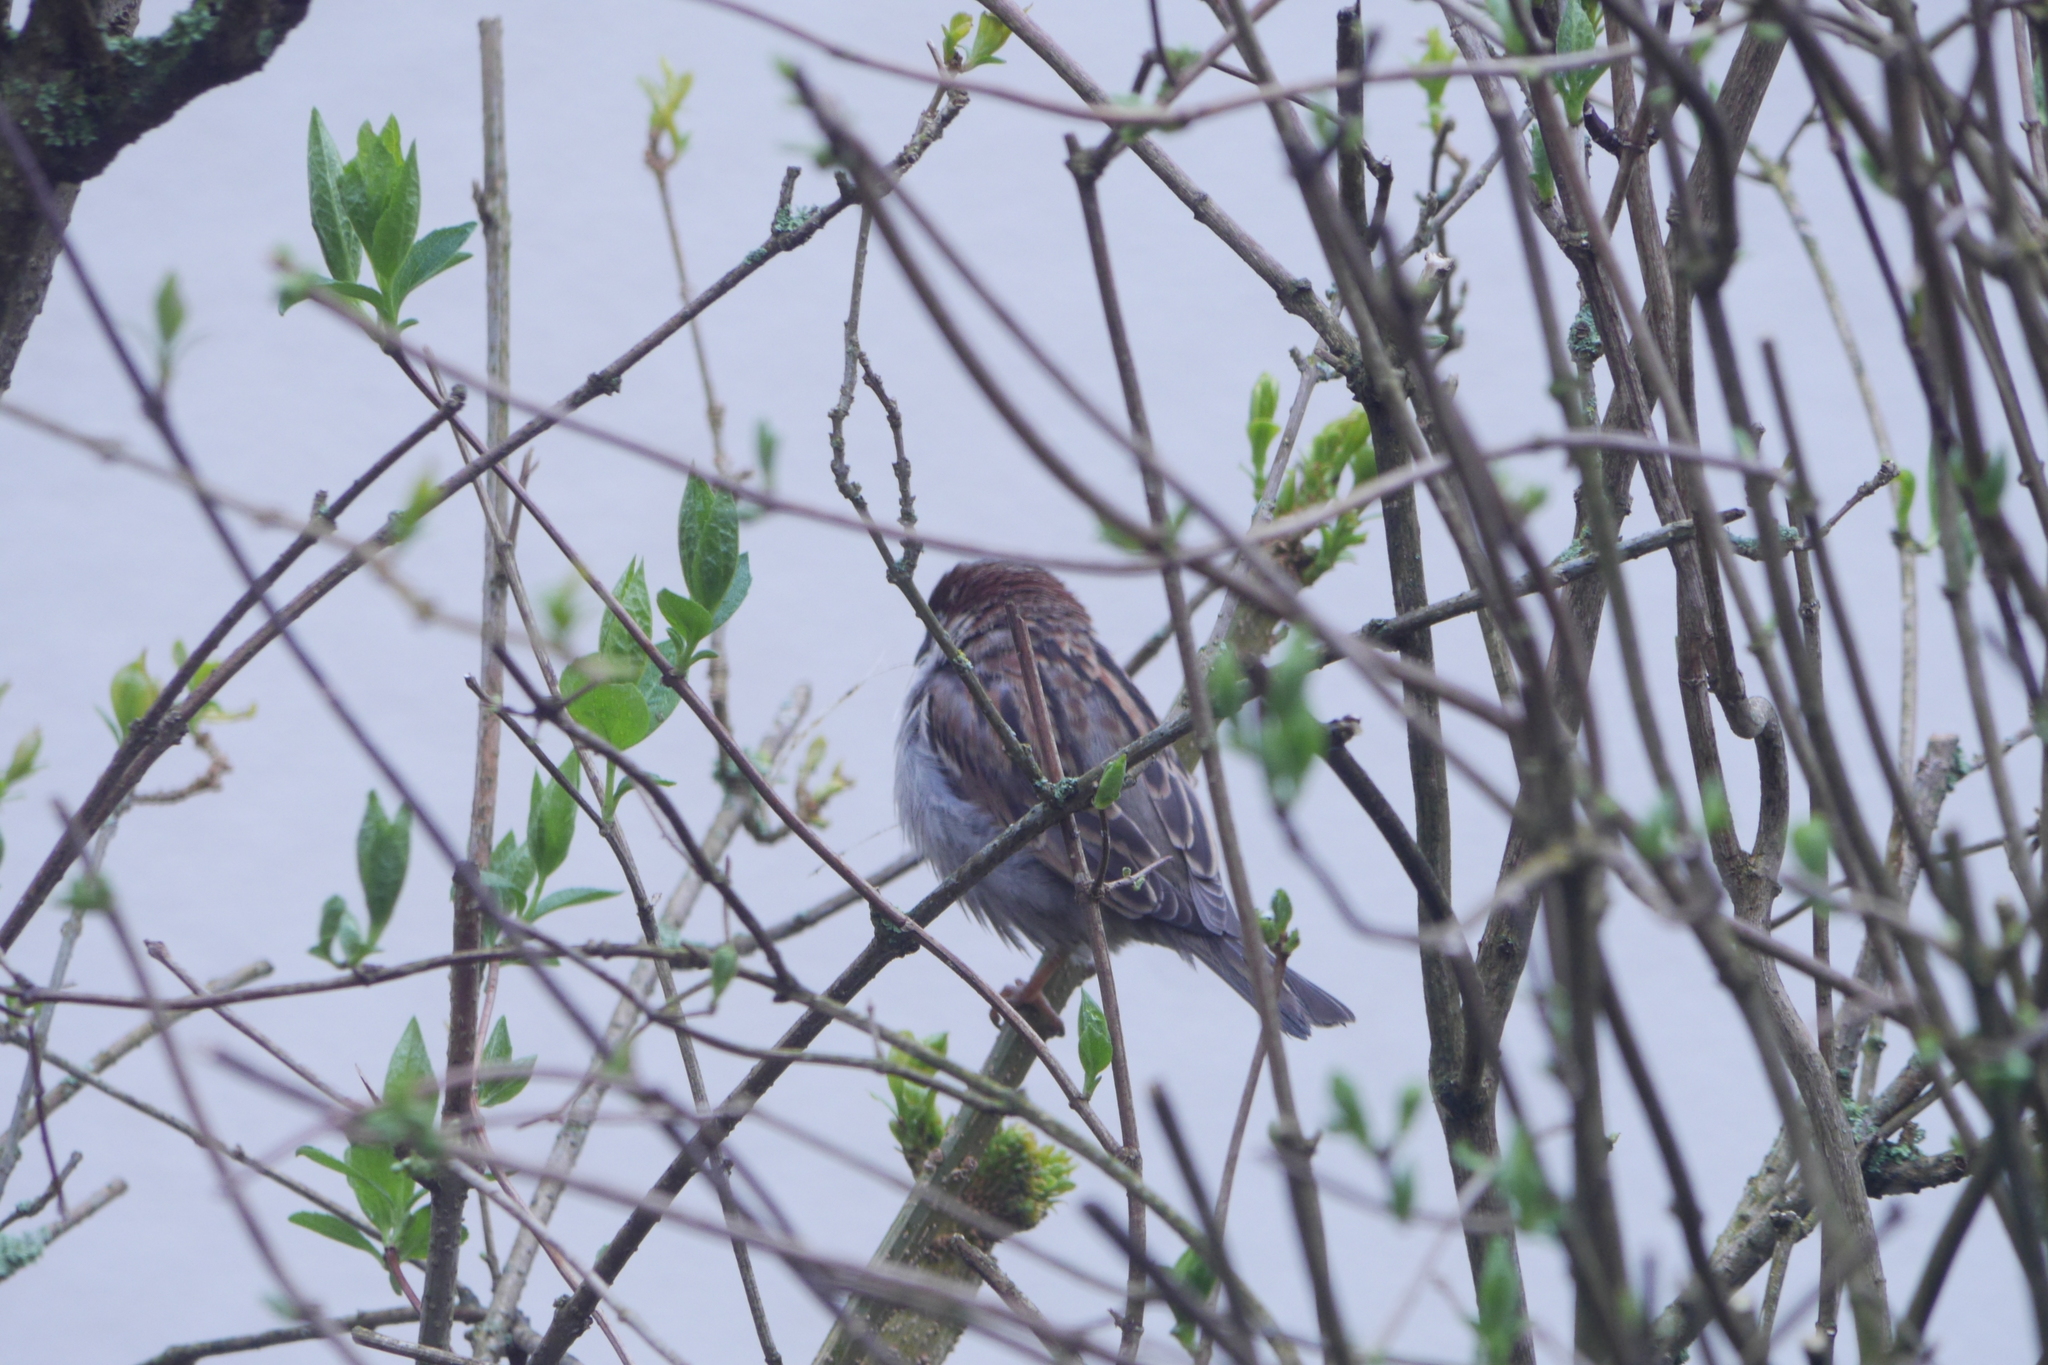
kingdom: Animalia
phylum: Chordata
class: Aves
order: Passeriformes
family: Passeridae
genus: Passer
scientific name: Passer domesticus
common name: House sparrow
